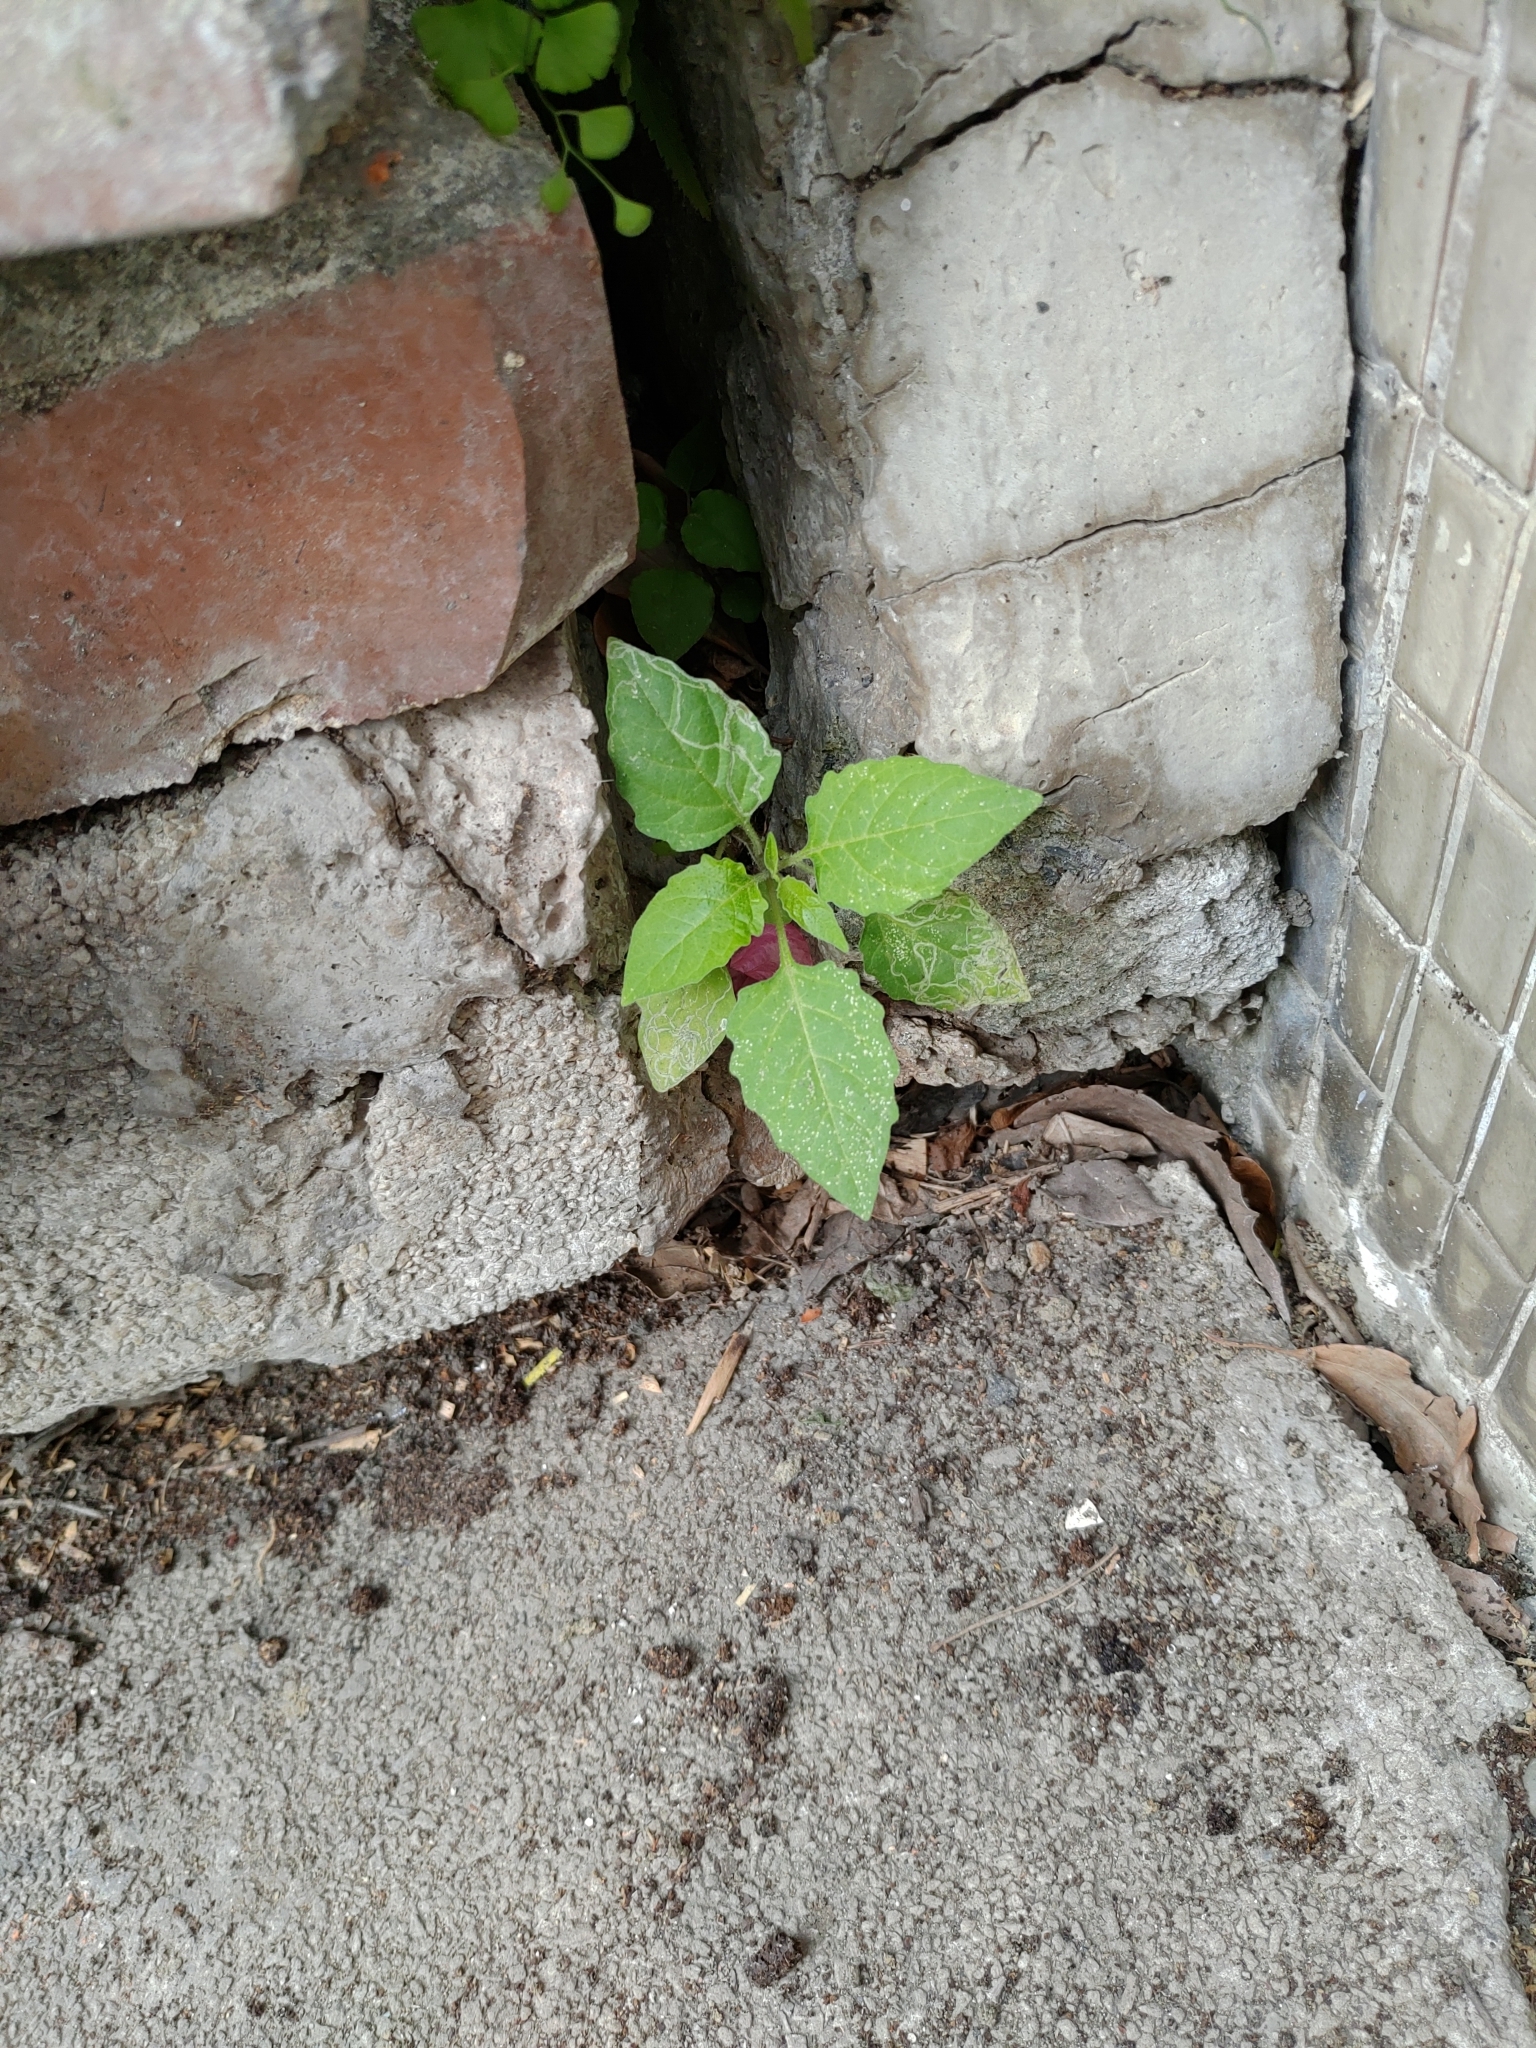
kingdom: Plantae
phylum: Tracheophyta
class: Magnoliopsida
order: Solanales
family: Solanaceae
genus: Solanum
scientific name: Solanum
